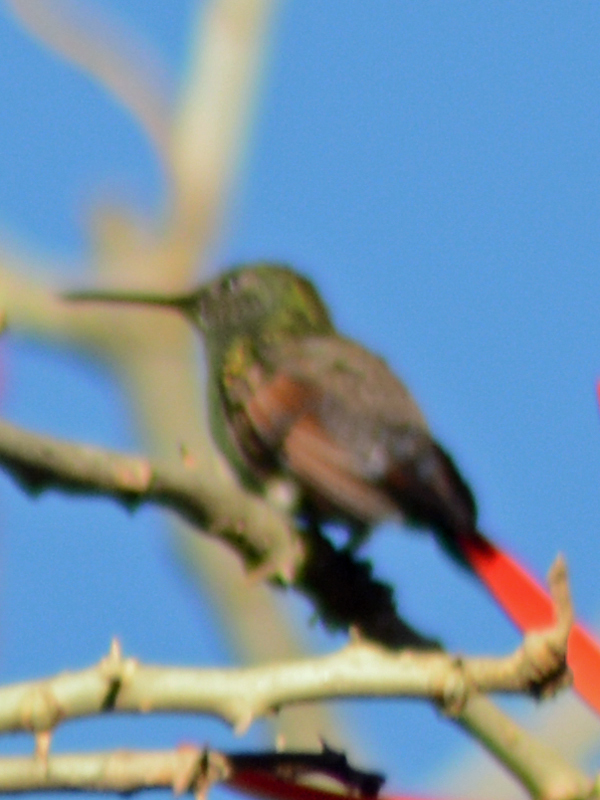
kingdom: Animalia
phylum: Chordata
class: Aves
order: Apodiformes
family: Trochilidae
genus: Saucerottia
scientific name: Saucerottia beryllina
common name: Berylline hummingbird
